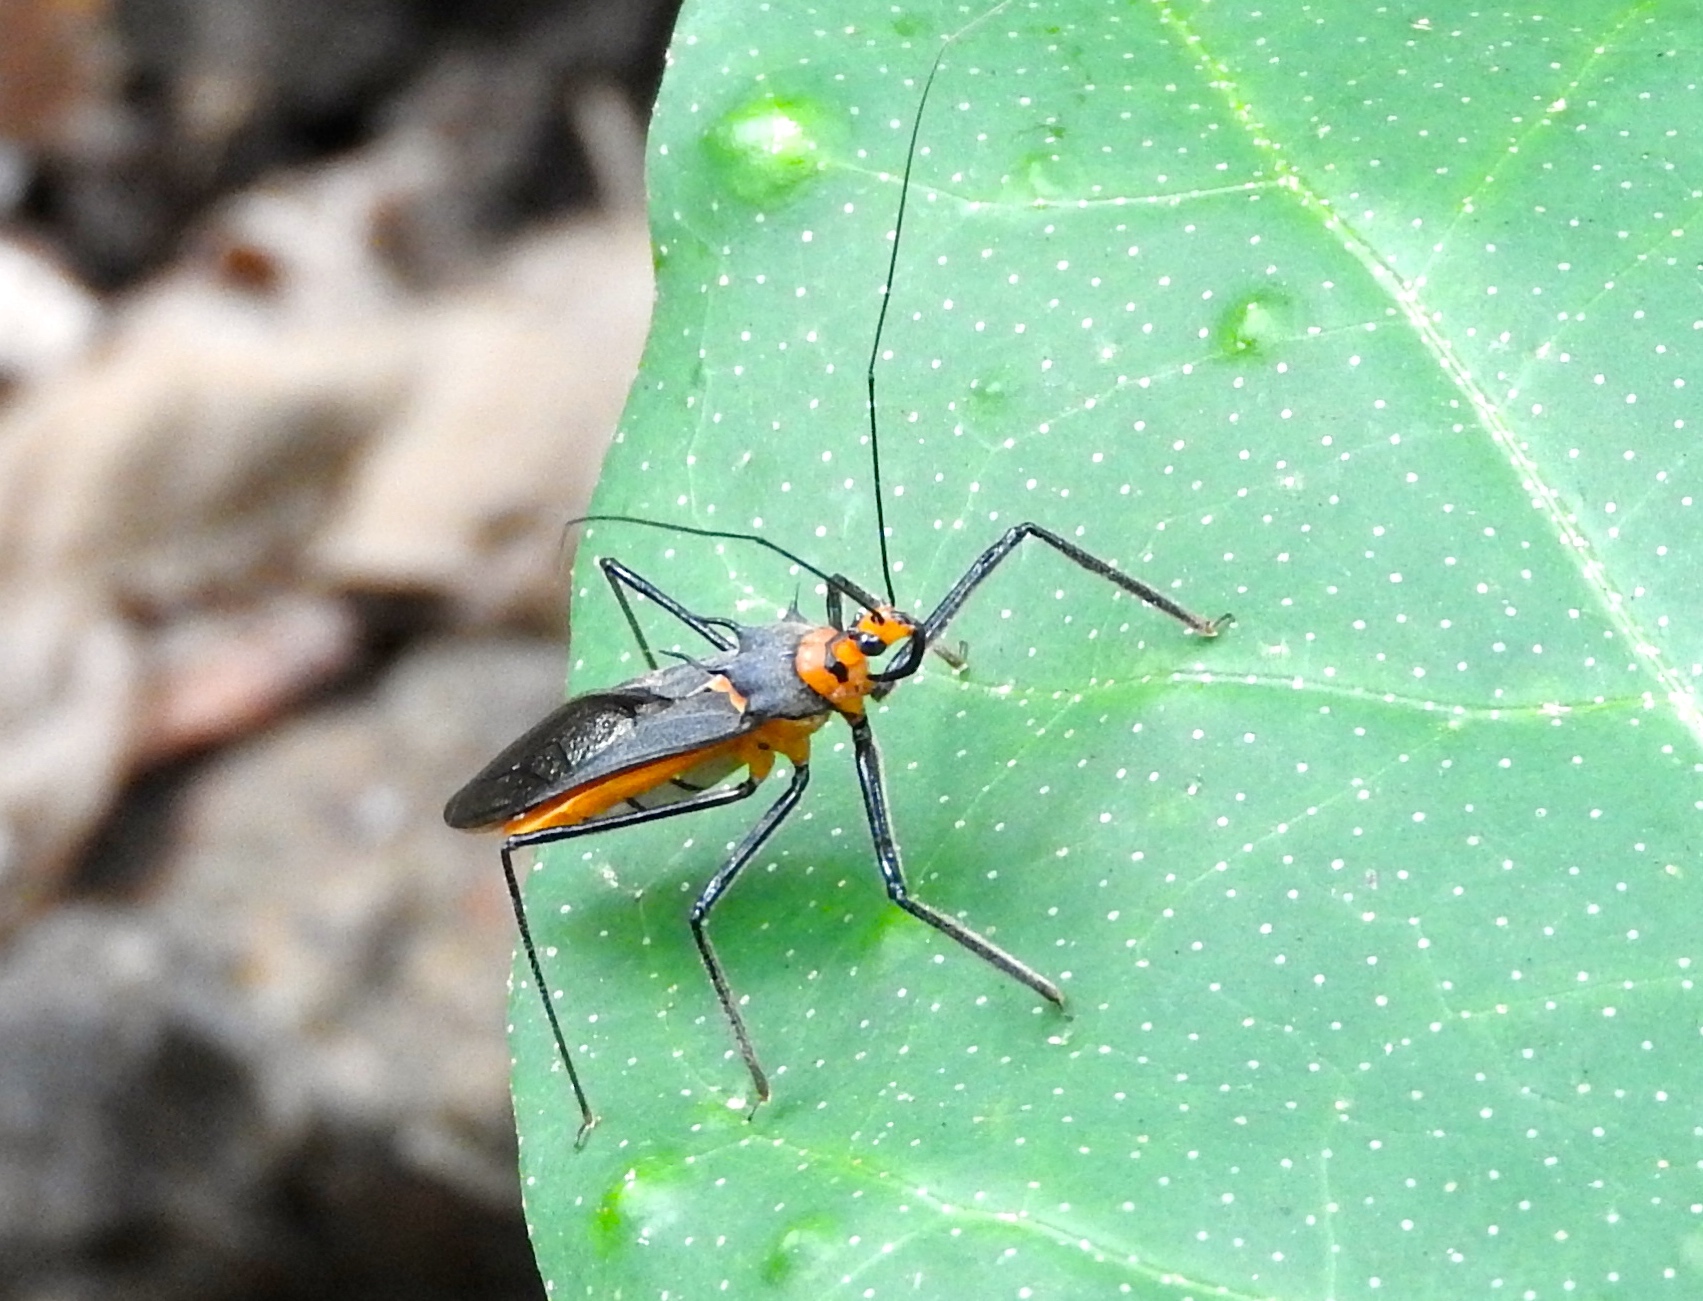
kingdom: Animalia
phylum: Arthropoda
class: Insecta
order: Hemiptera
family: Reduviidae
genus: Repipta
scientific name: Repipta fuscipes
